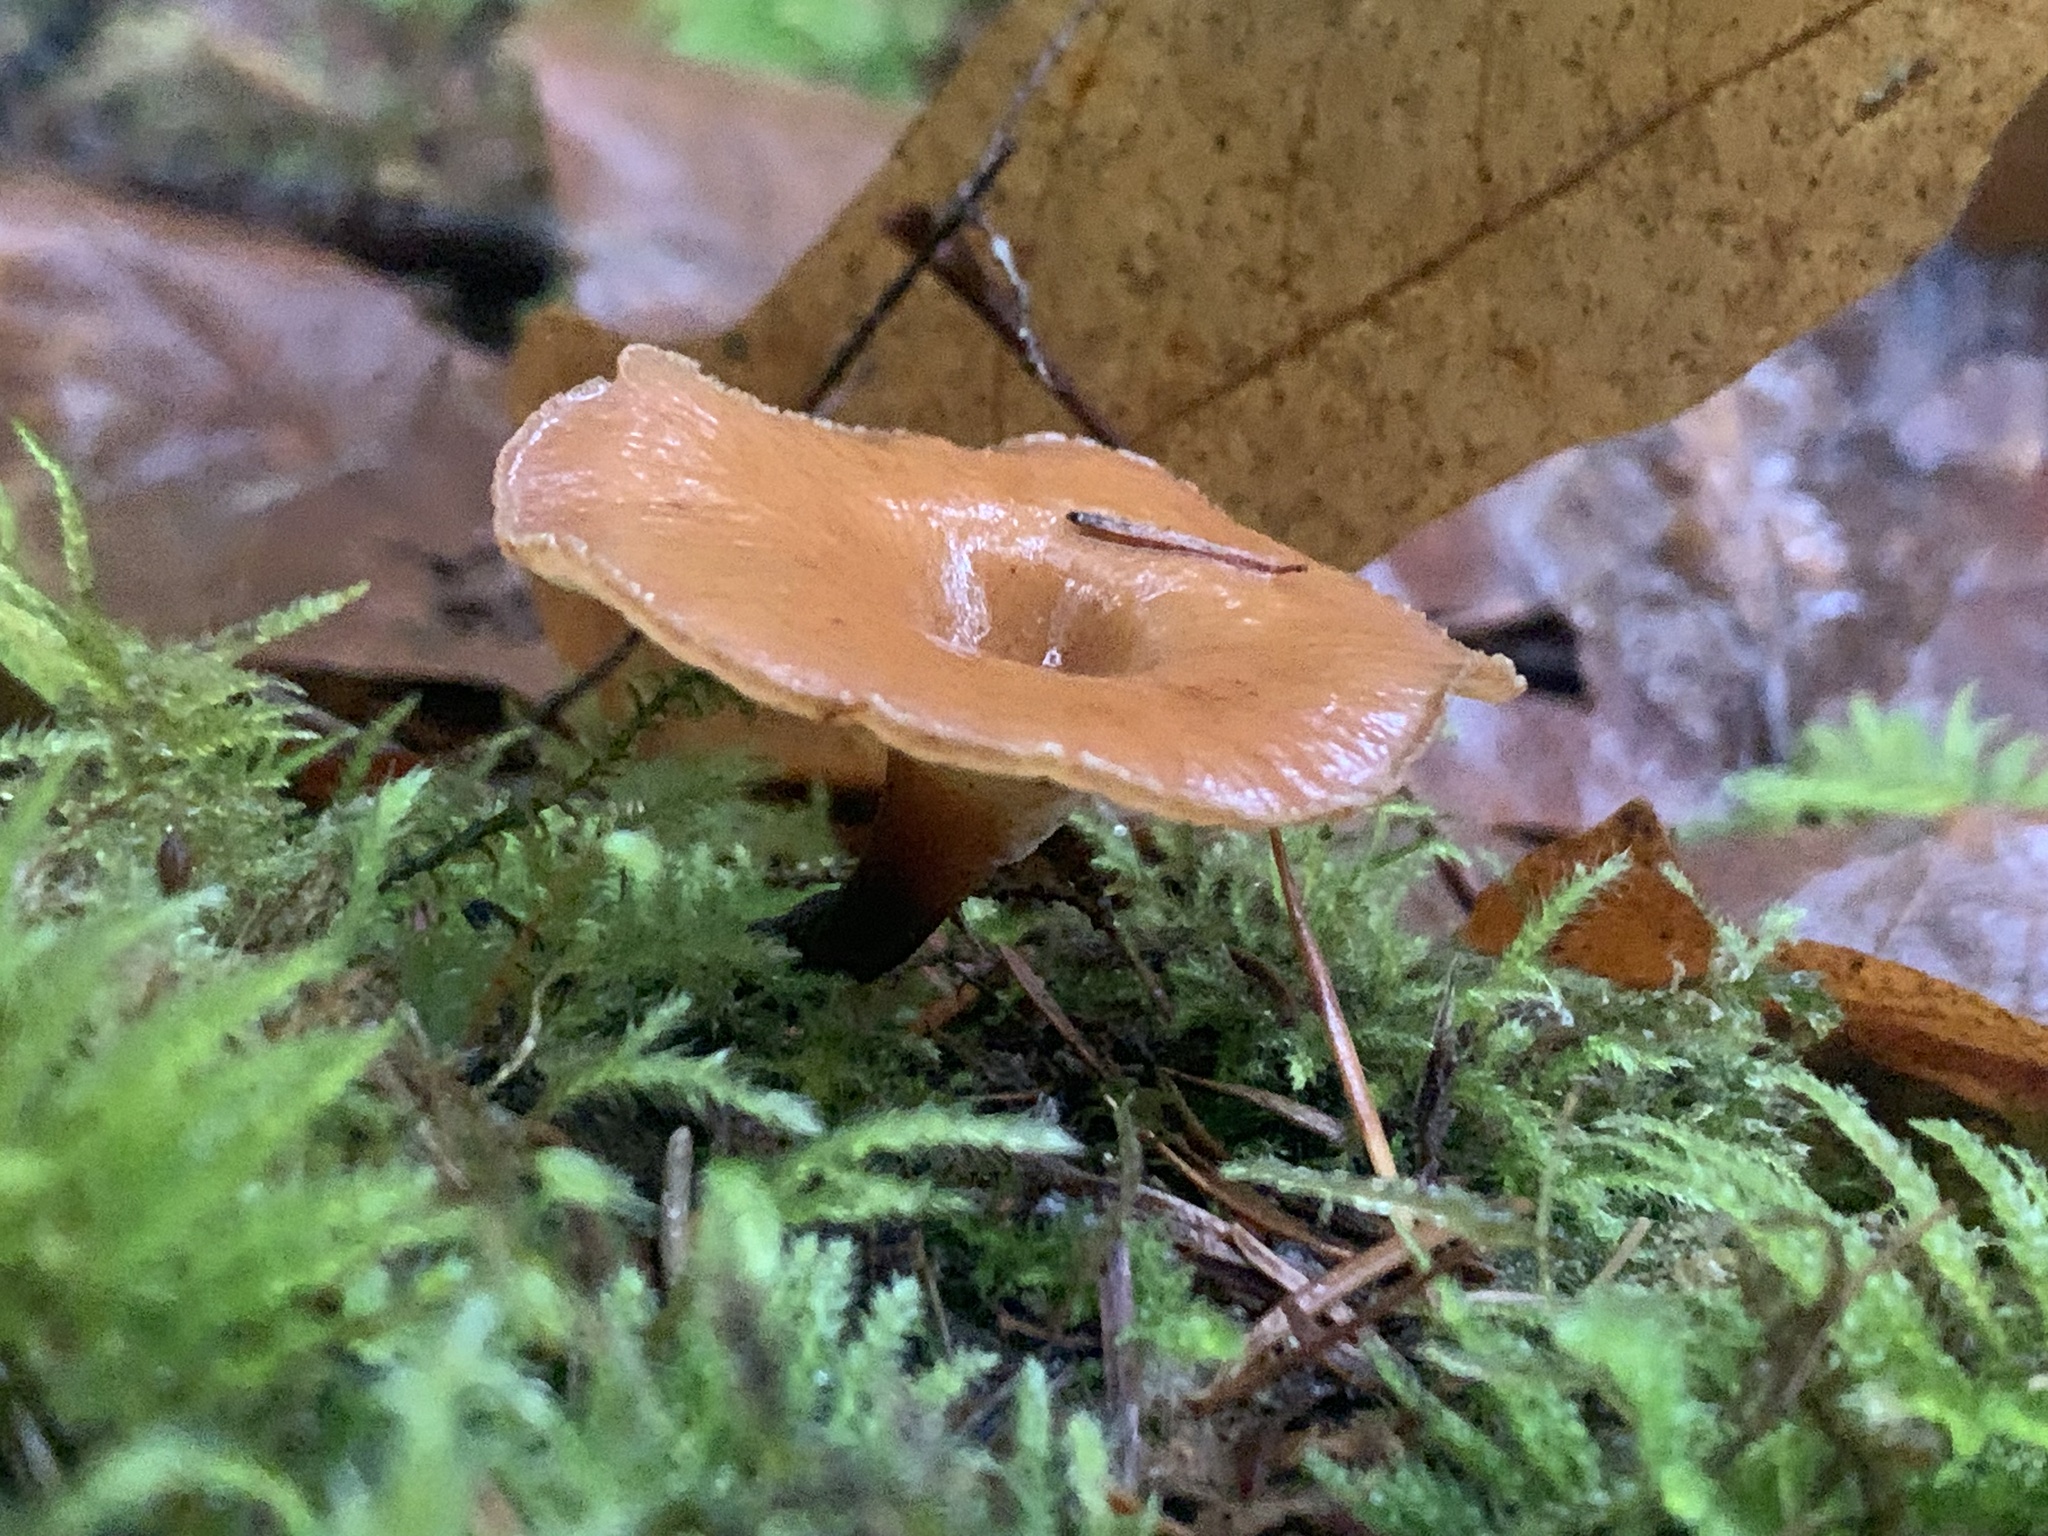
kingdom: Fungi
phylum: Basidiomycota
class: Agaricomycetes
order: Polyporales
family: Polyporaceae
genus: Picipes
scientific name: Picipes badius
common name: Bay polypore
